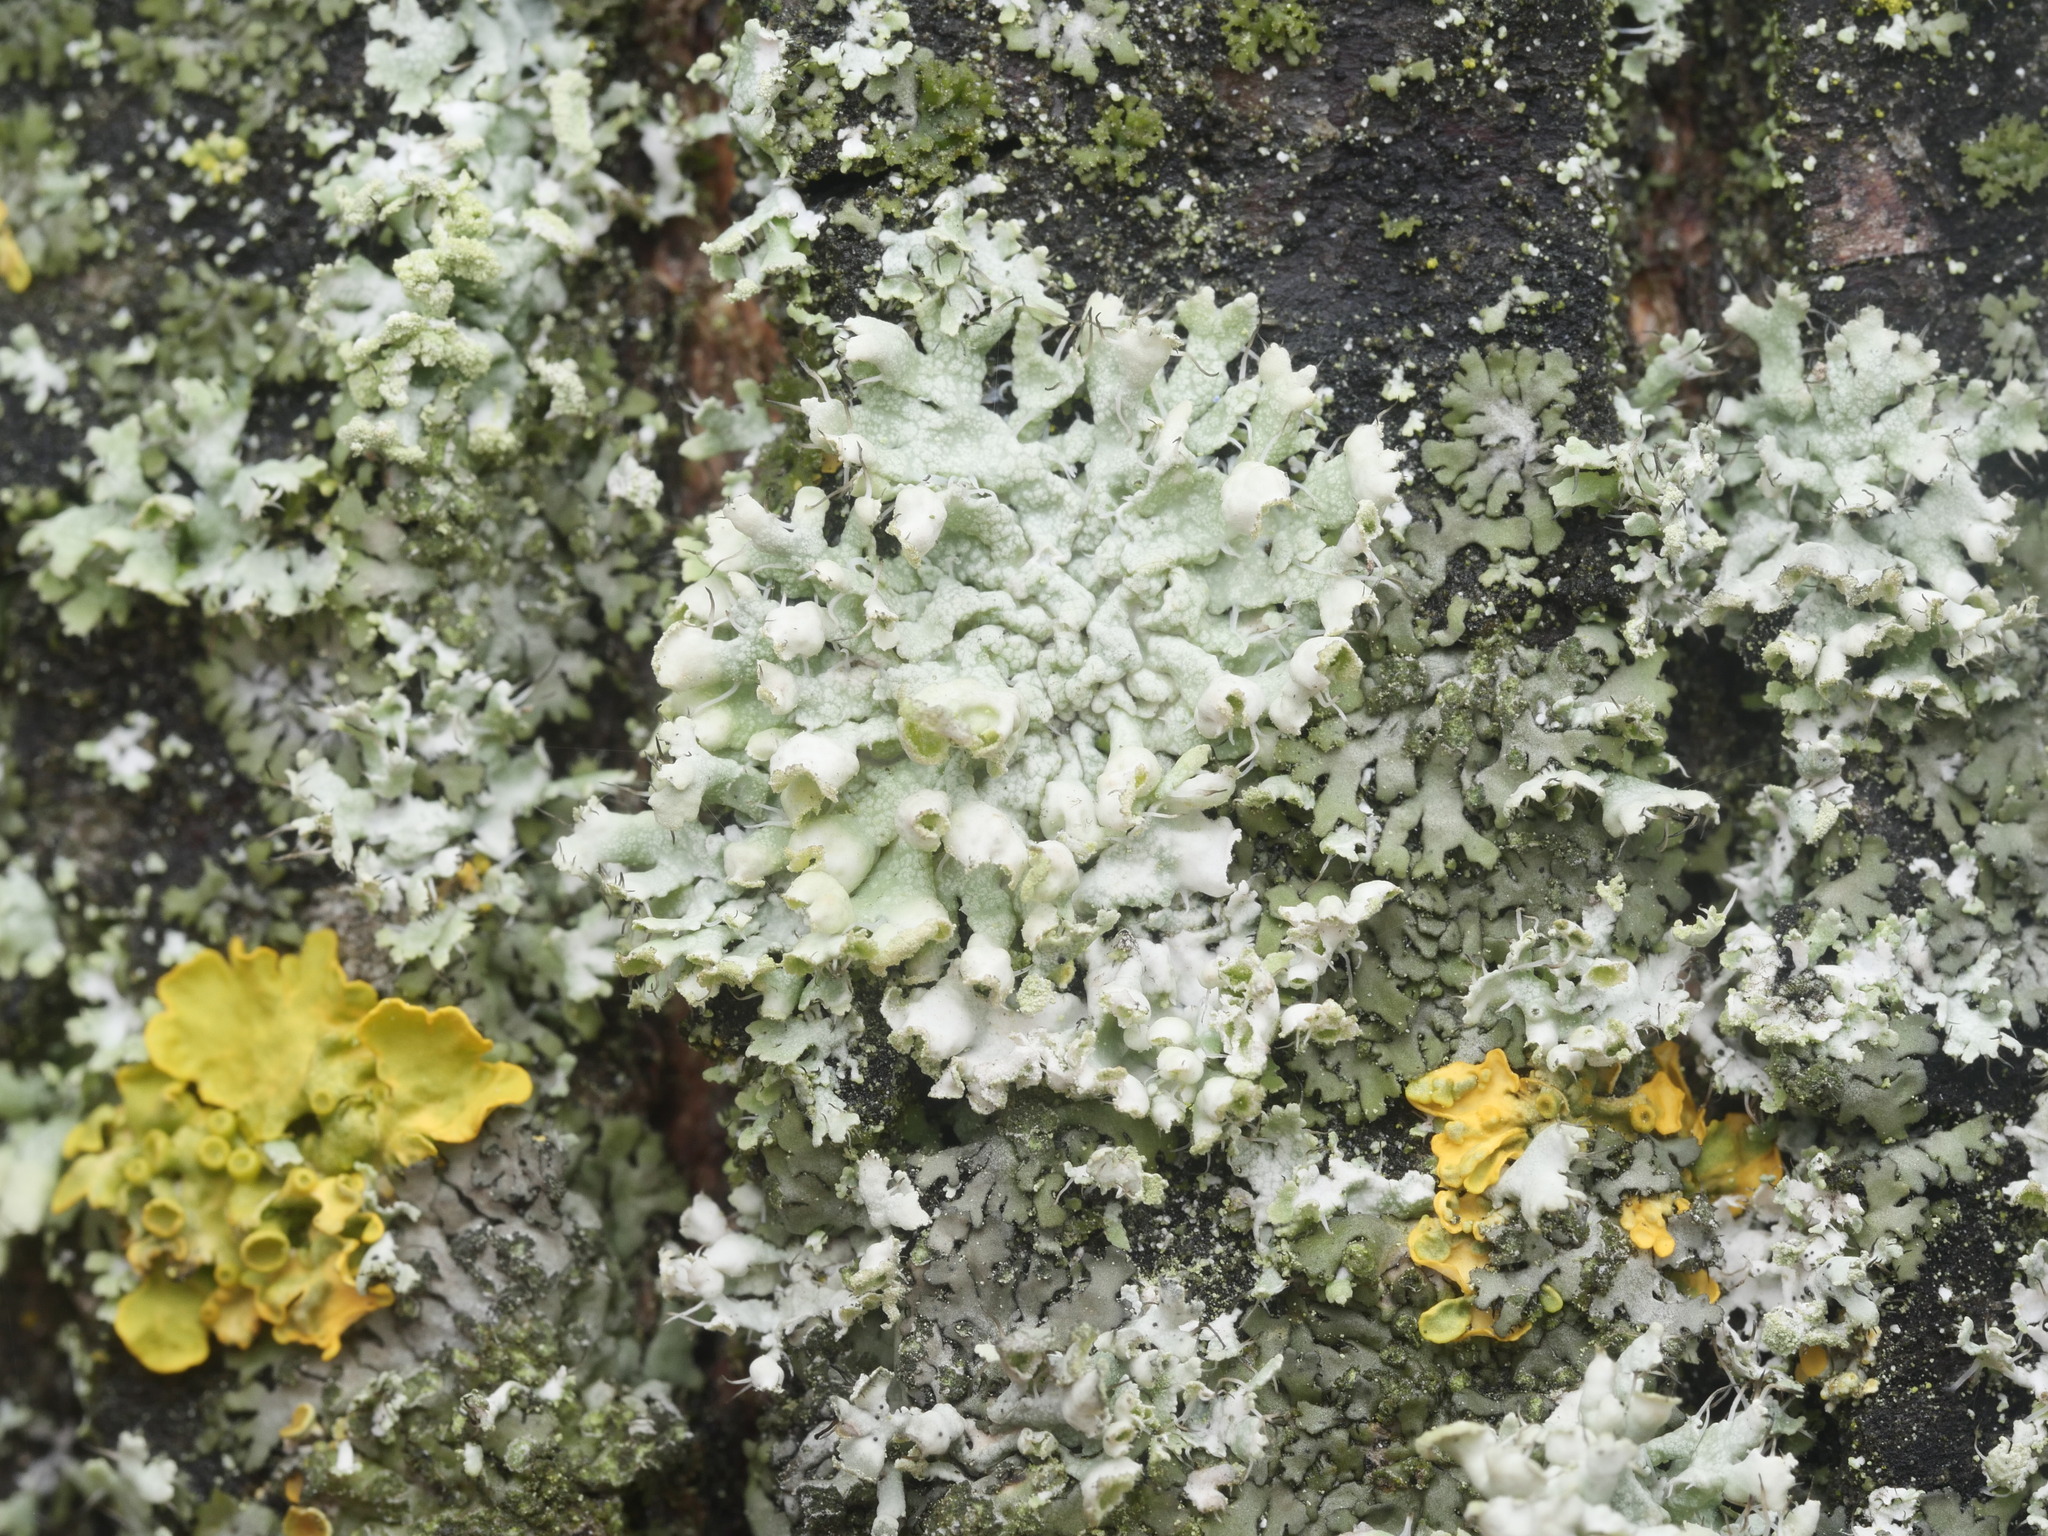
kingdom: Fungi
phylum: Ascomycota
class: Lecanoromycetes
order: Caliciales
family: Physciaceae
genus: Physcia
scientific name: Physcia adscendens
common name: Hooded rosette lichen
